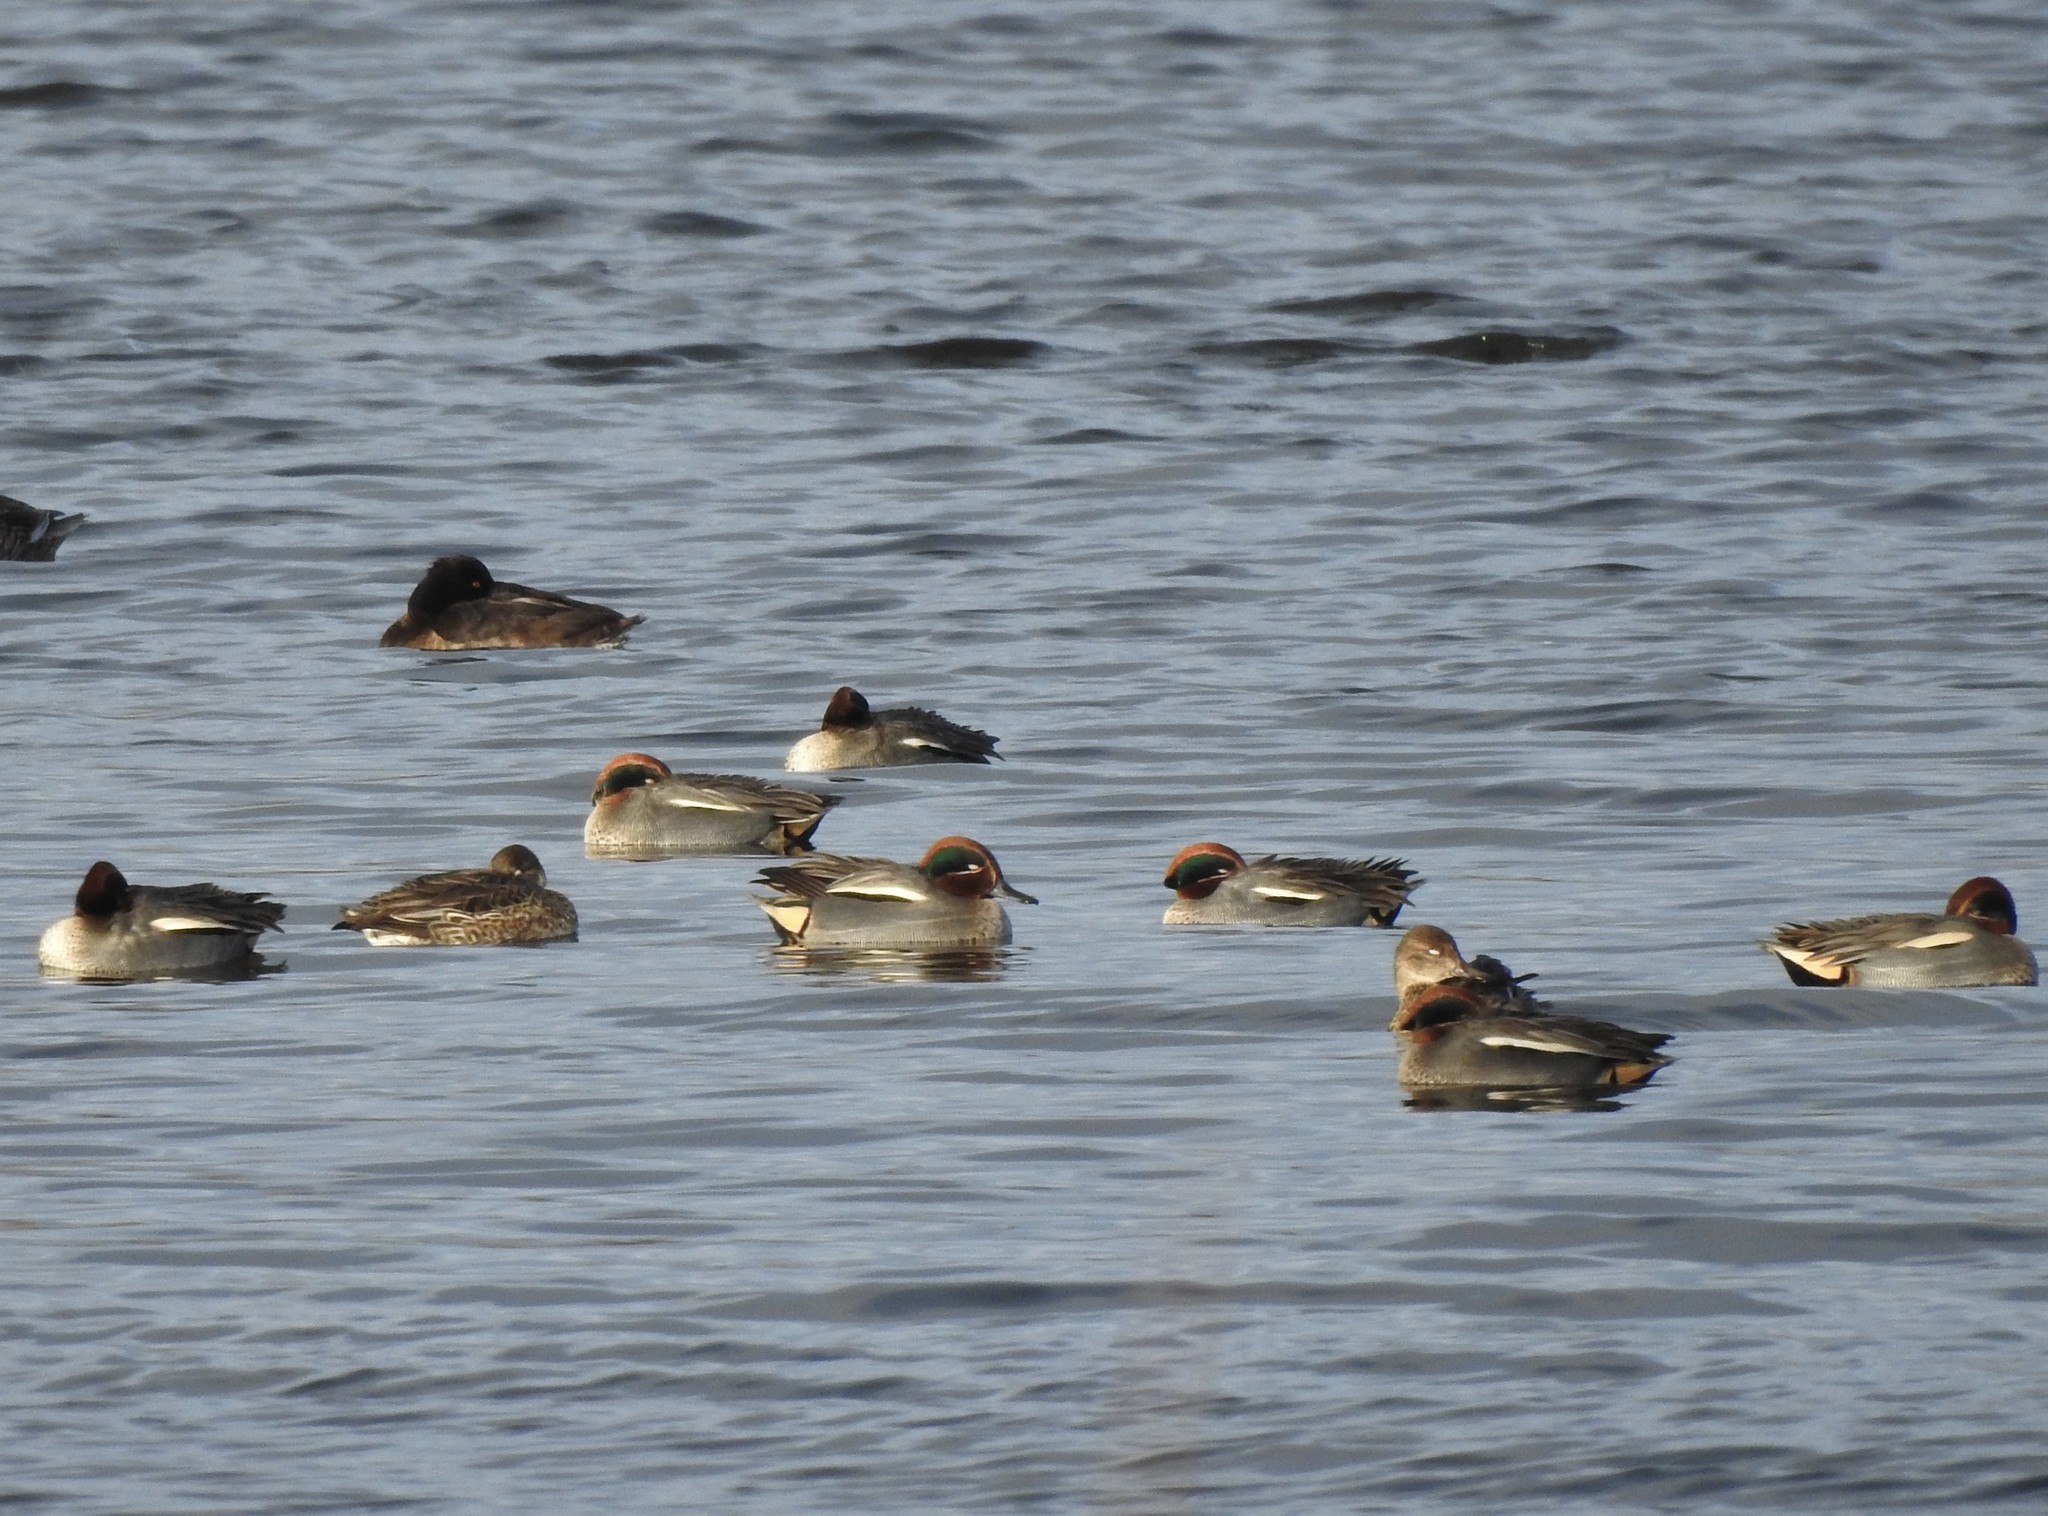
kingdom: Animalia
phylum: Chordata
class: Aves
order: Anseriformes
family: Anatidae
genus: Anas
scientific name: Anas crecca
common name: Eurasian teal
